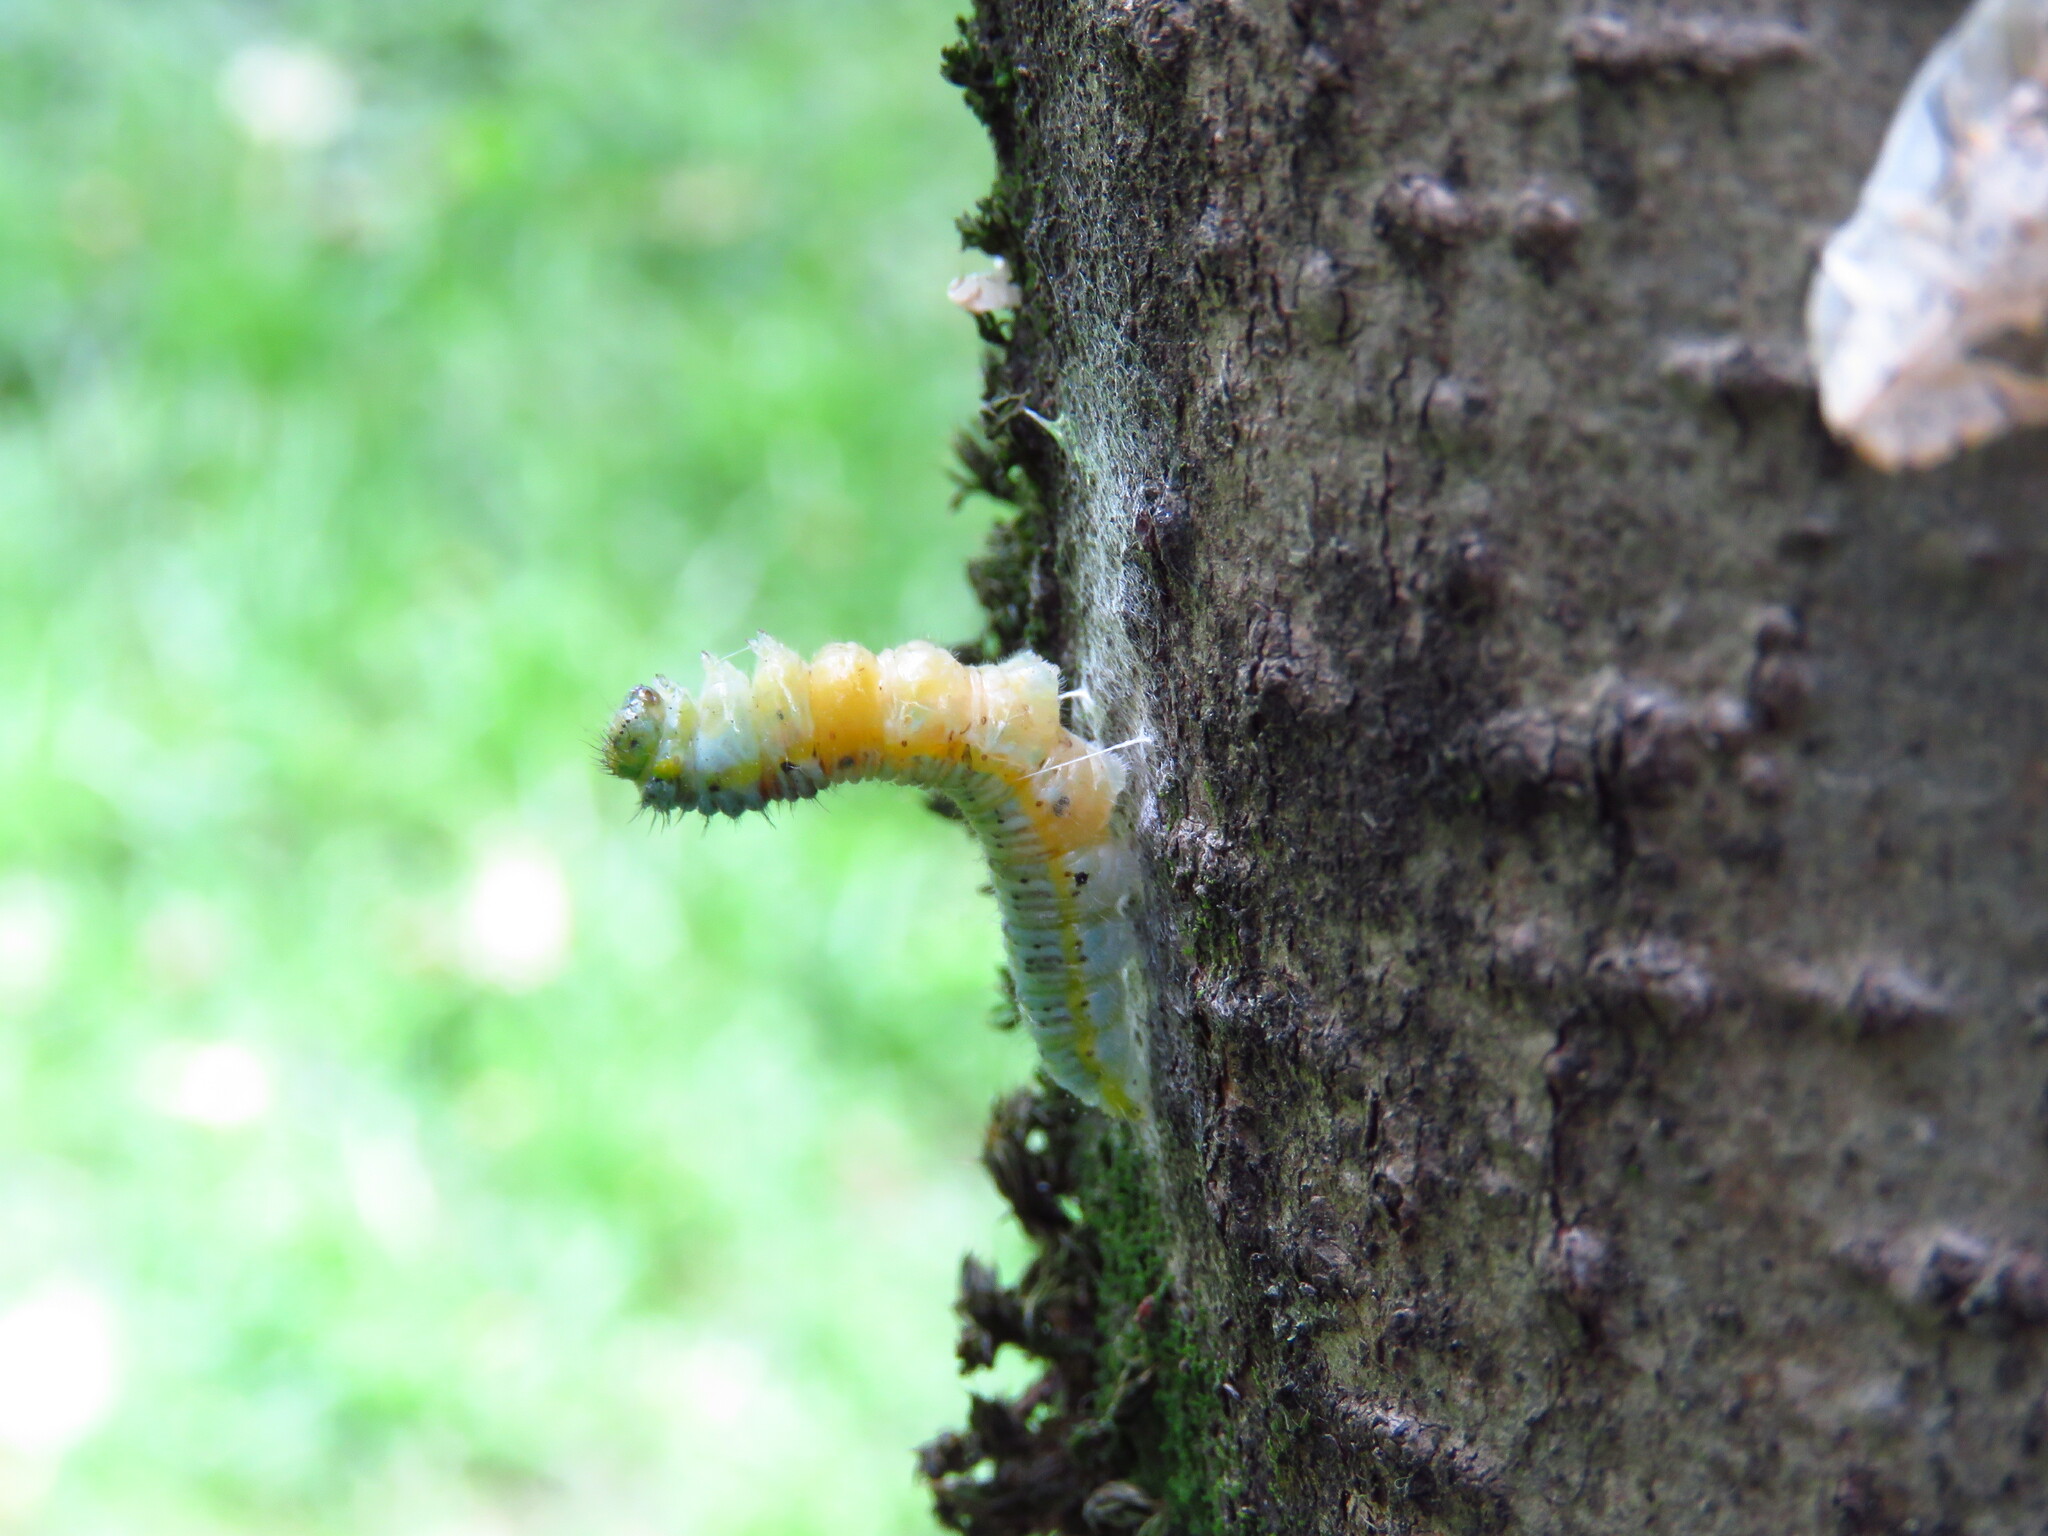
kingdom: Animalia
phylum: Arthropoda
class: Insecta
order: Lepidoptera
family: Pieridae
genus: Leptophobia
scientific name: Leptophobia aripa
